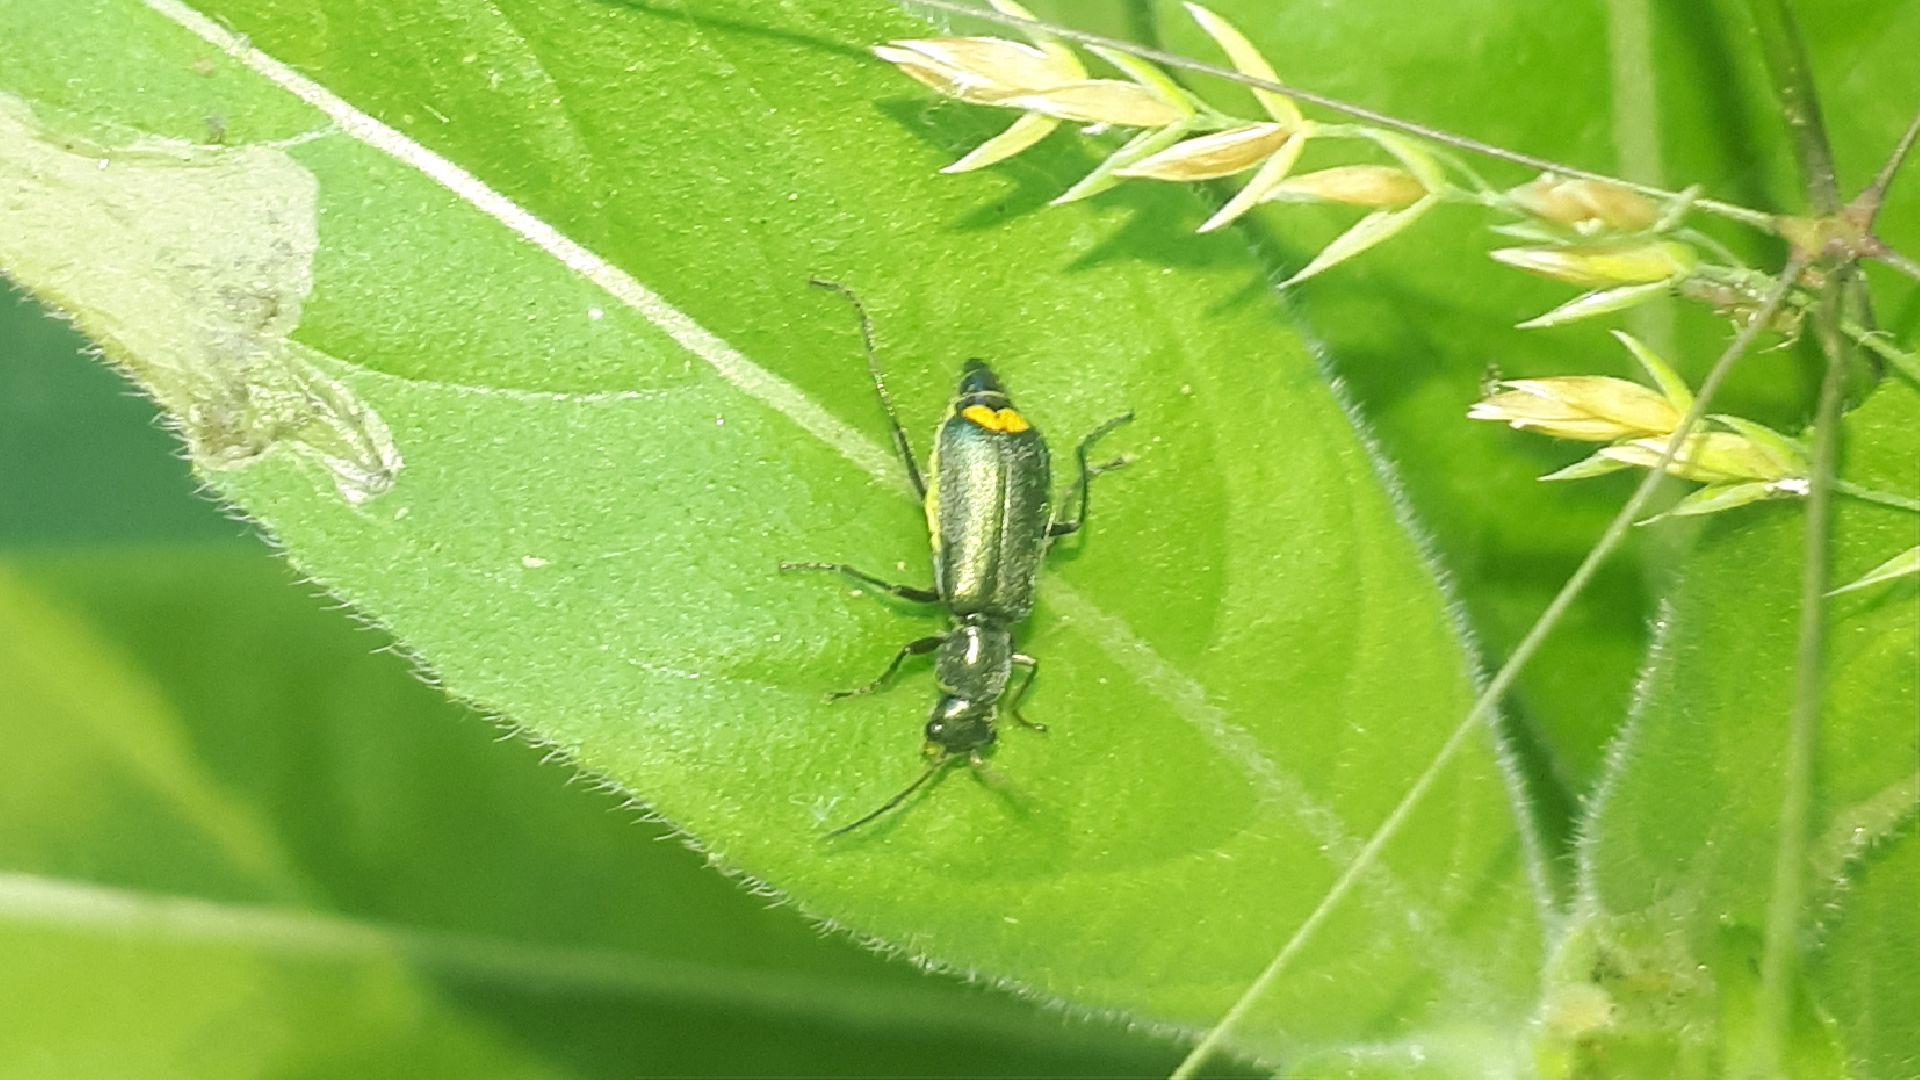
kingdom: Animalia
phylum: Arthropoda
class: Insecta
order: Coleoptera
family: Malachiidae
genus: Clanoptilus
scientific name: Clanoptilus marginellus
